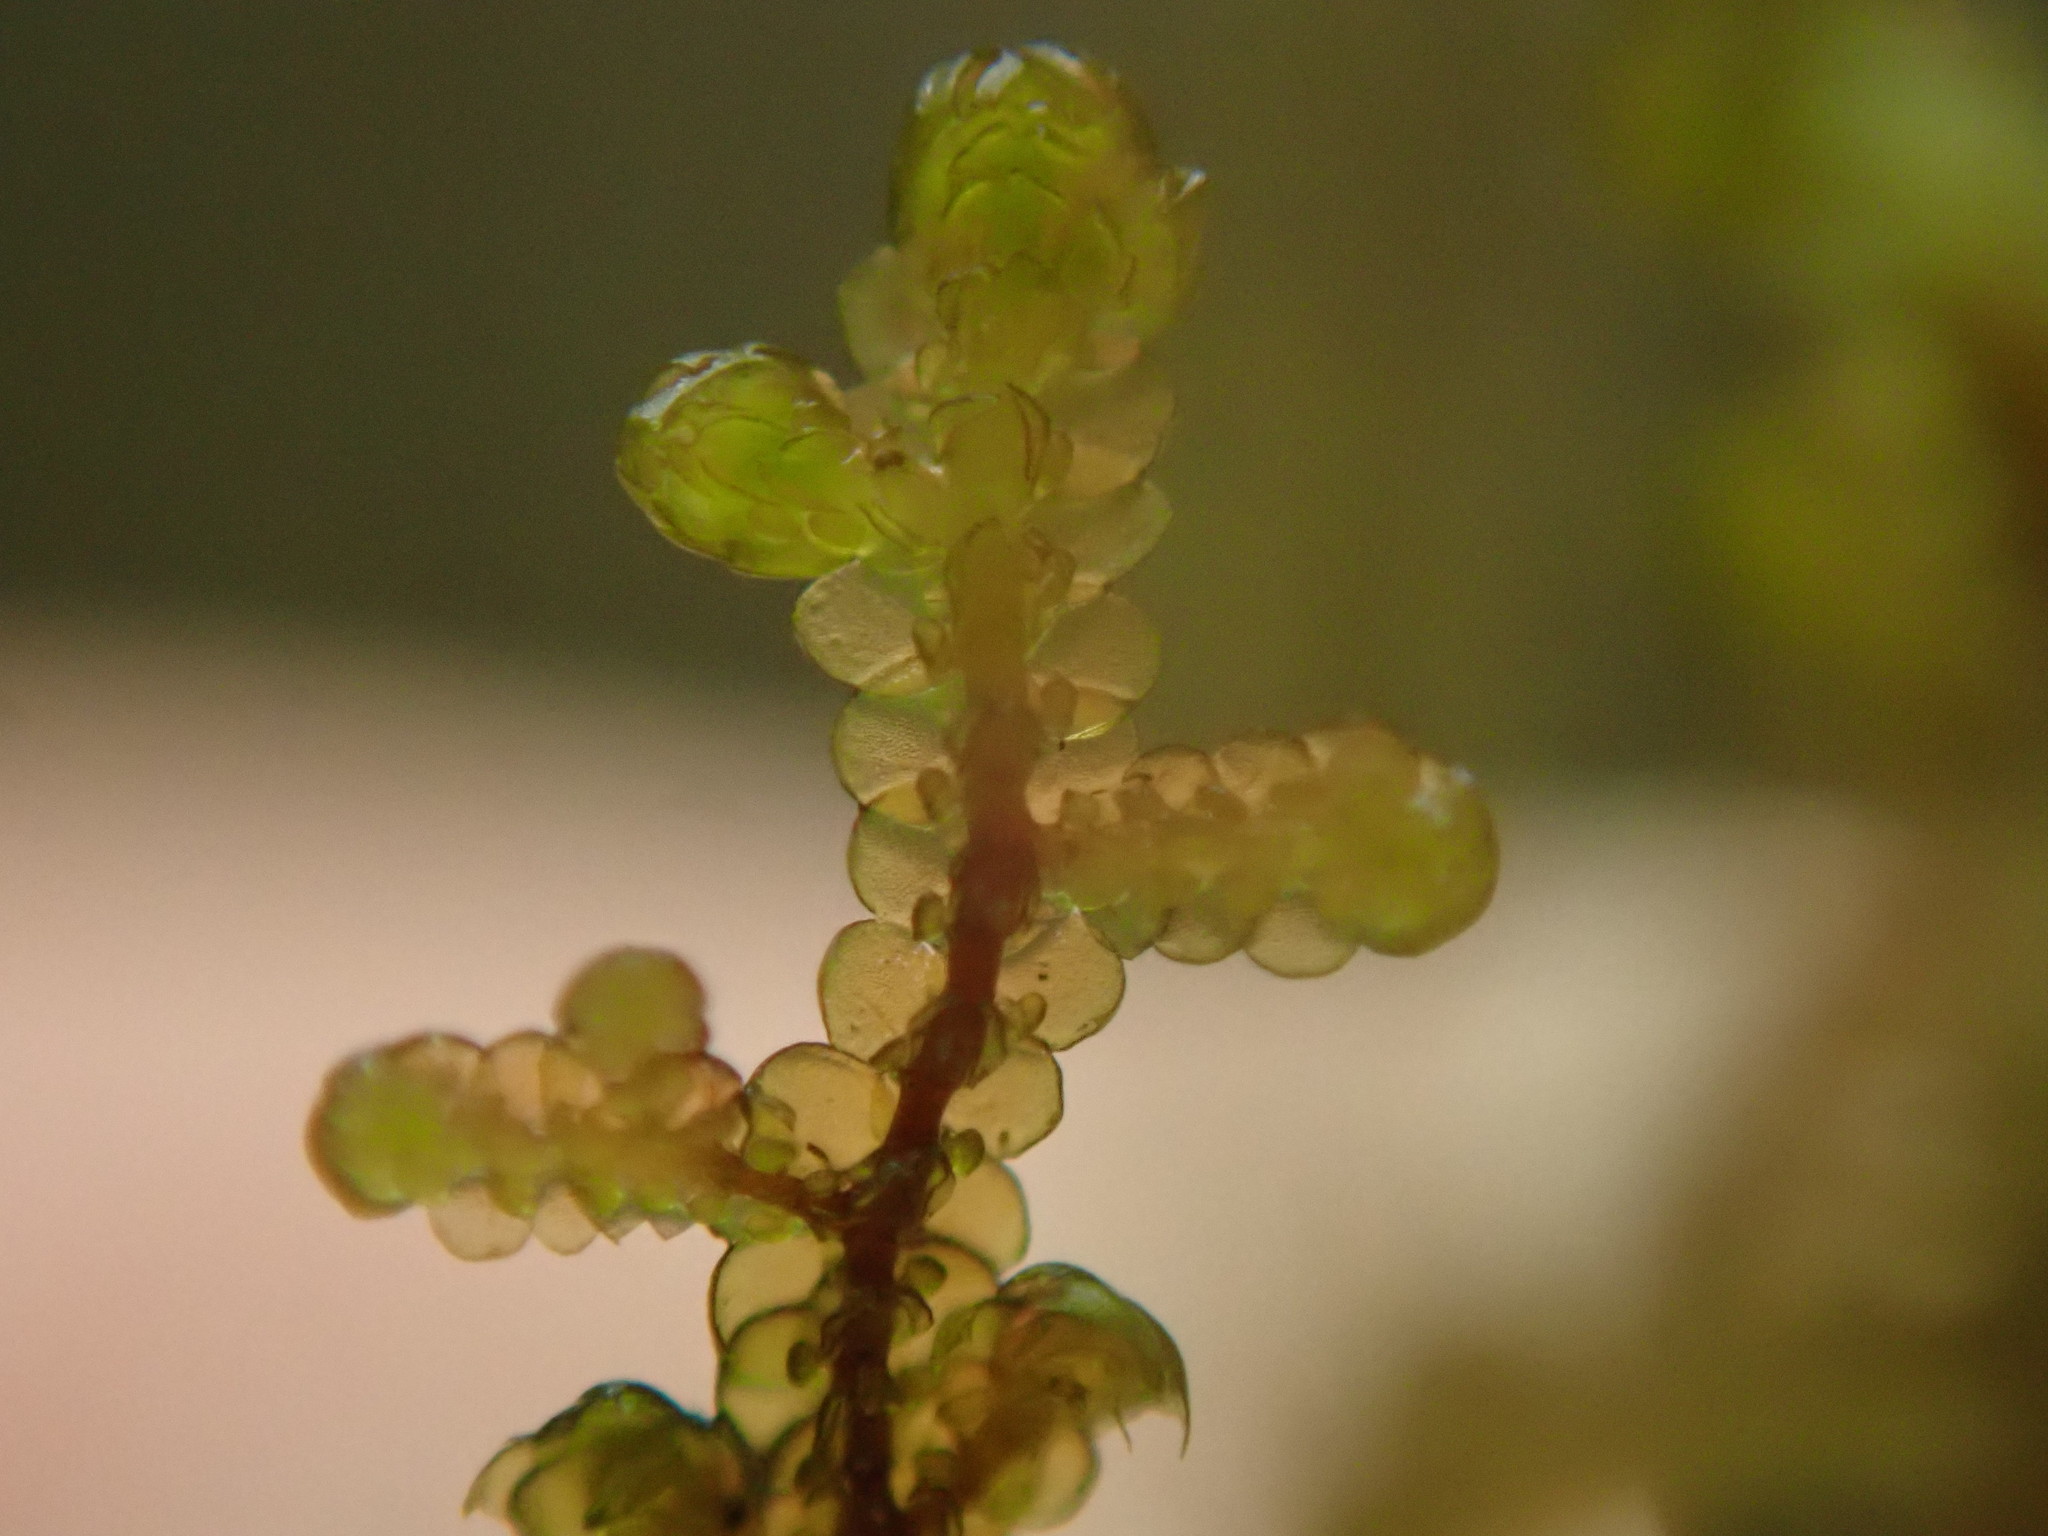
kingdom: Plantae
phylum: Marchantiophyta
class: Jungermanniopsida
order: Porellales
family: Frullaniaceae
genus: Frullania
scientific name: Frullania nisquallensis
